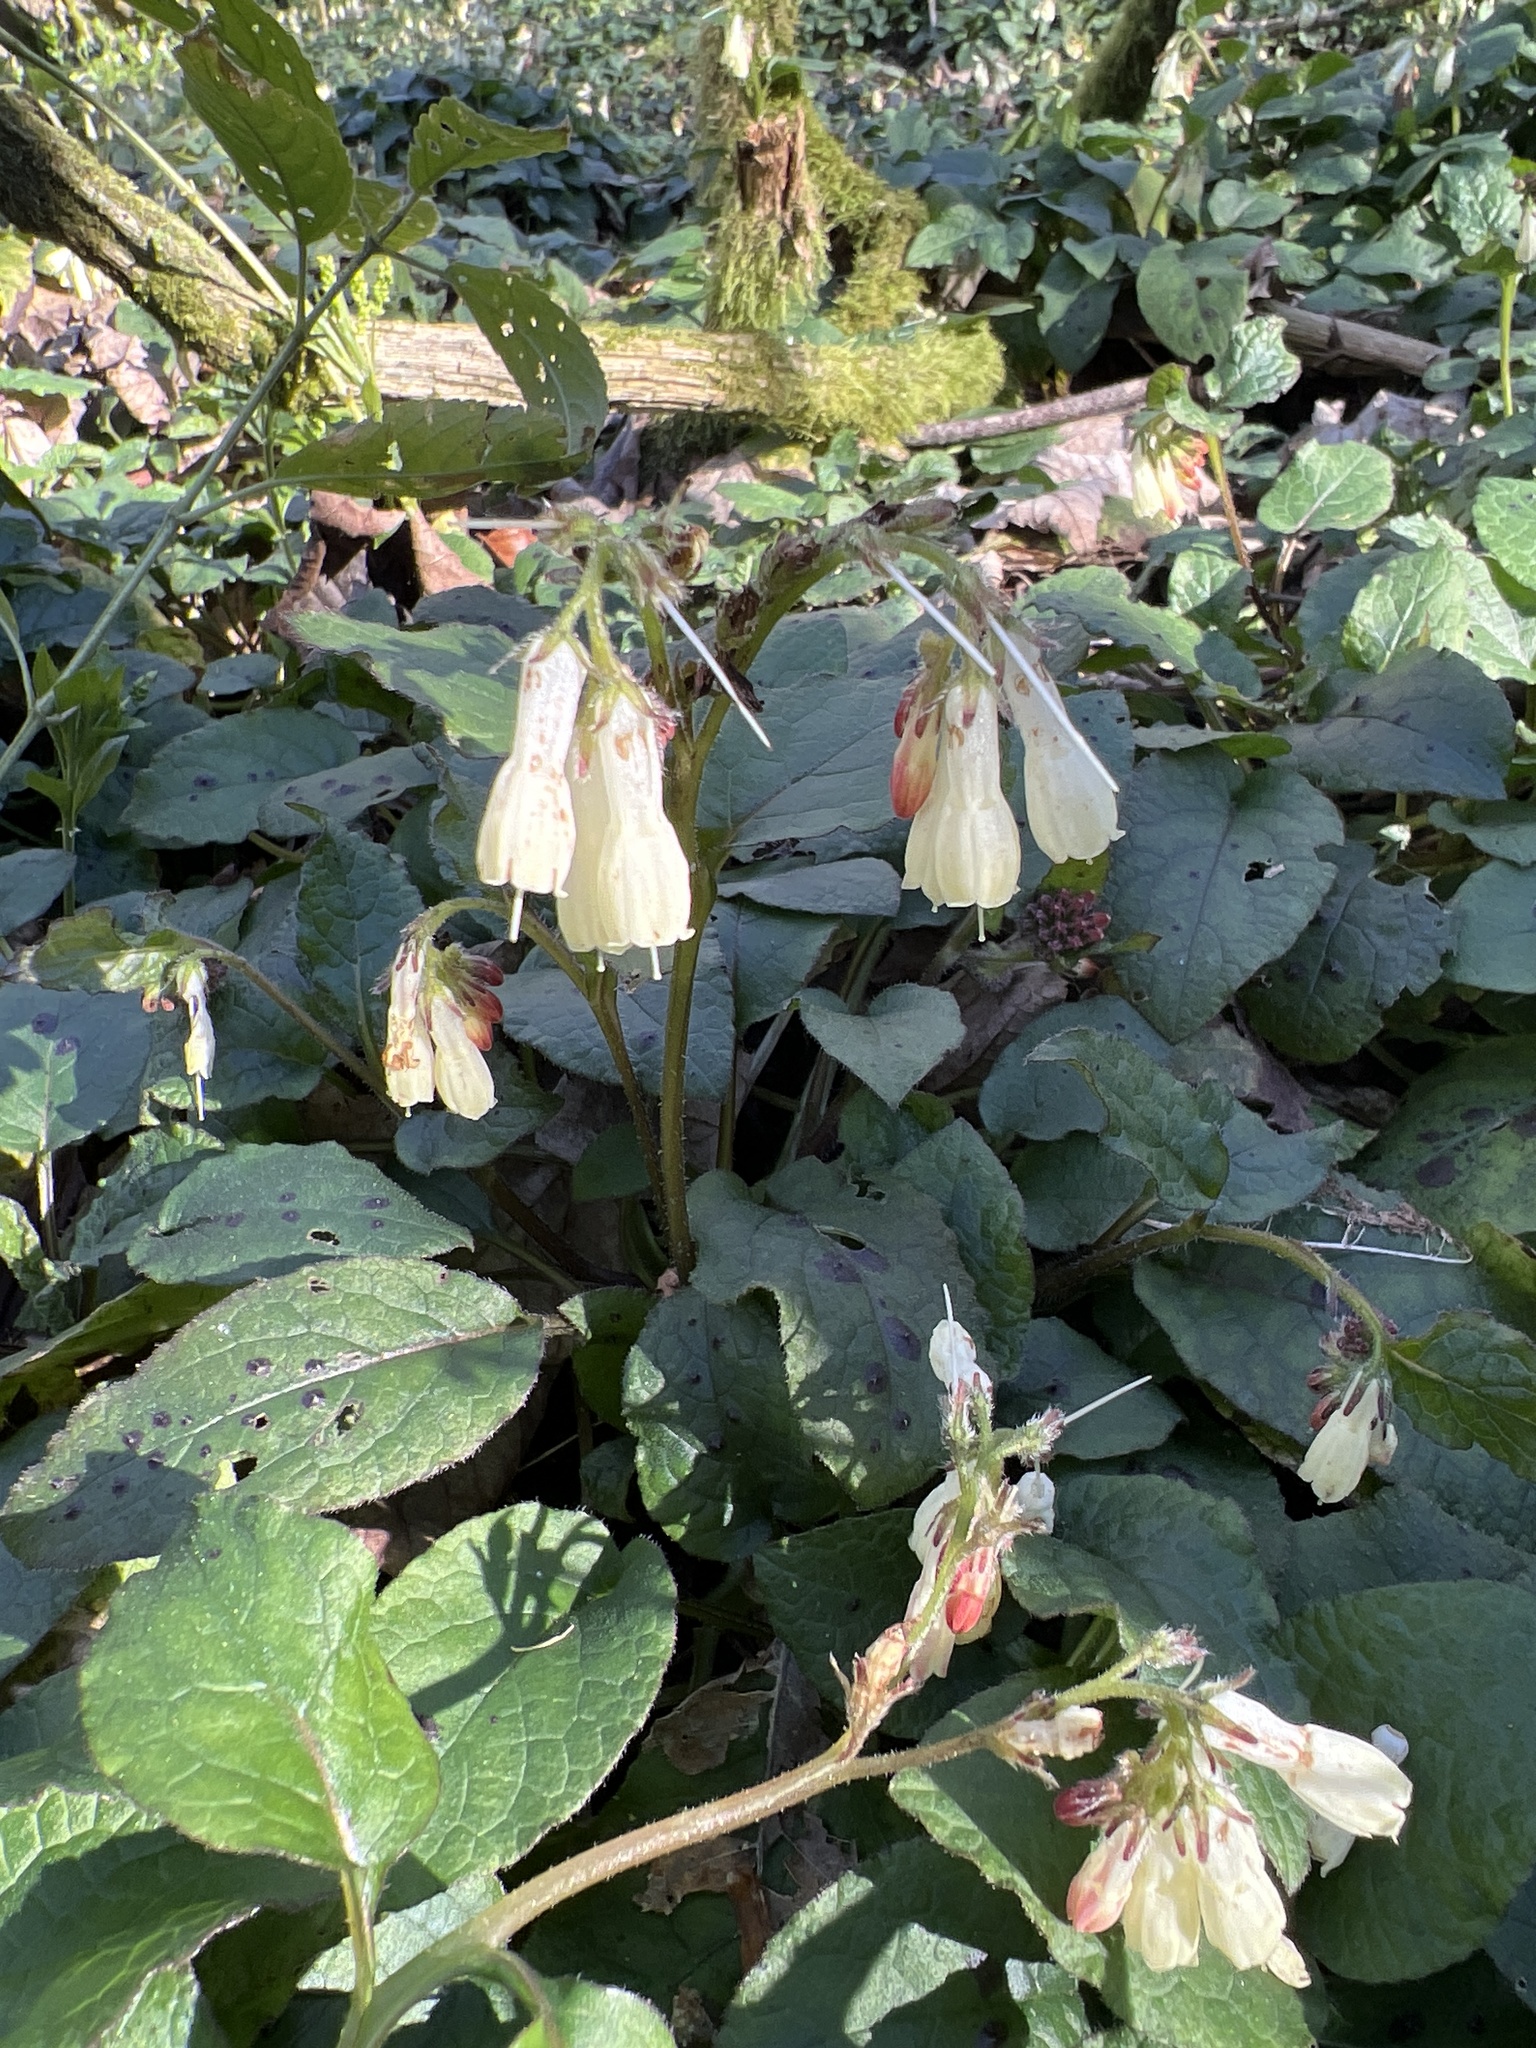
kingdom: Plantae
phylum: Tracheophyta
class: Magnoliopsida
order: Boraginales
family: Boraginaceae
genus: Symphytum
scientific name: Symphytum grandiflorum
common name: Creeping comfrey
